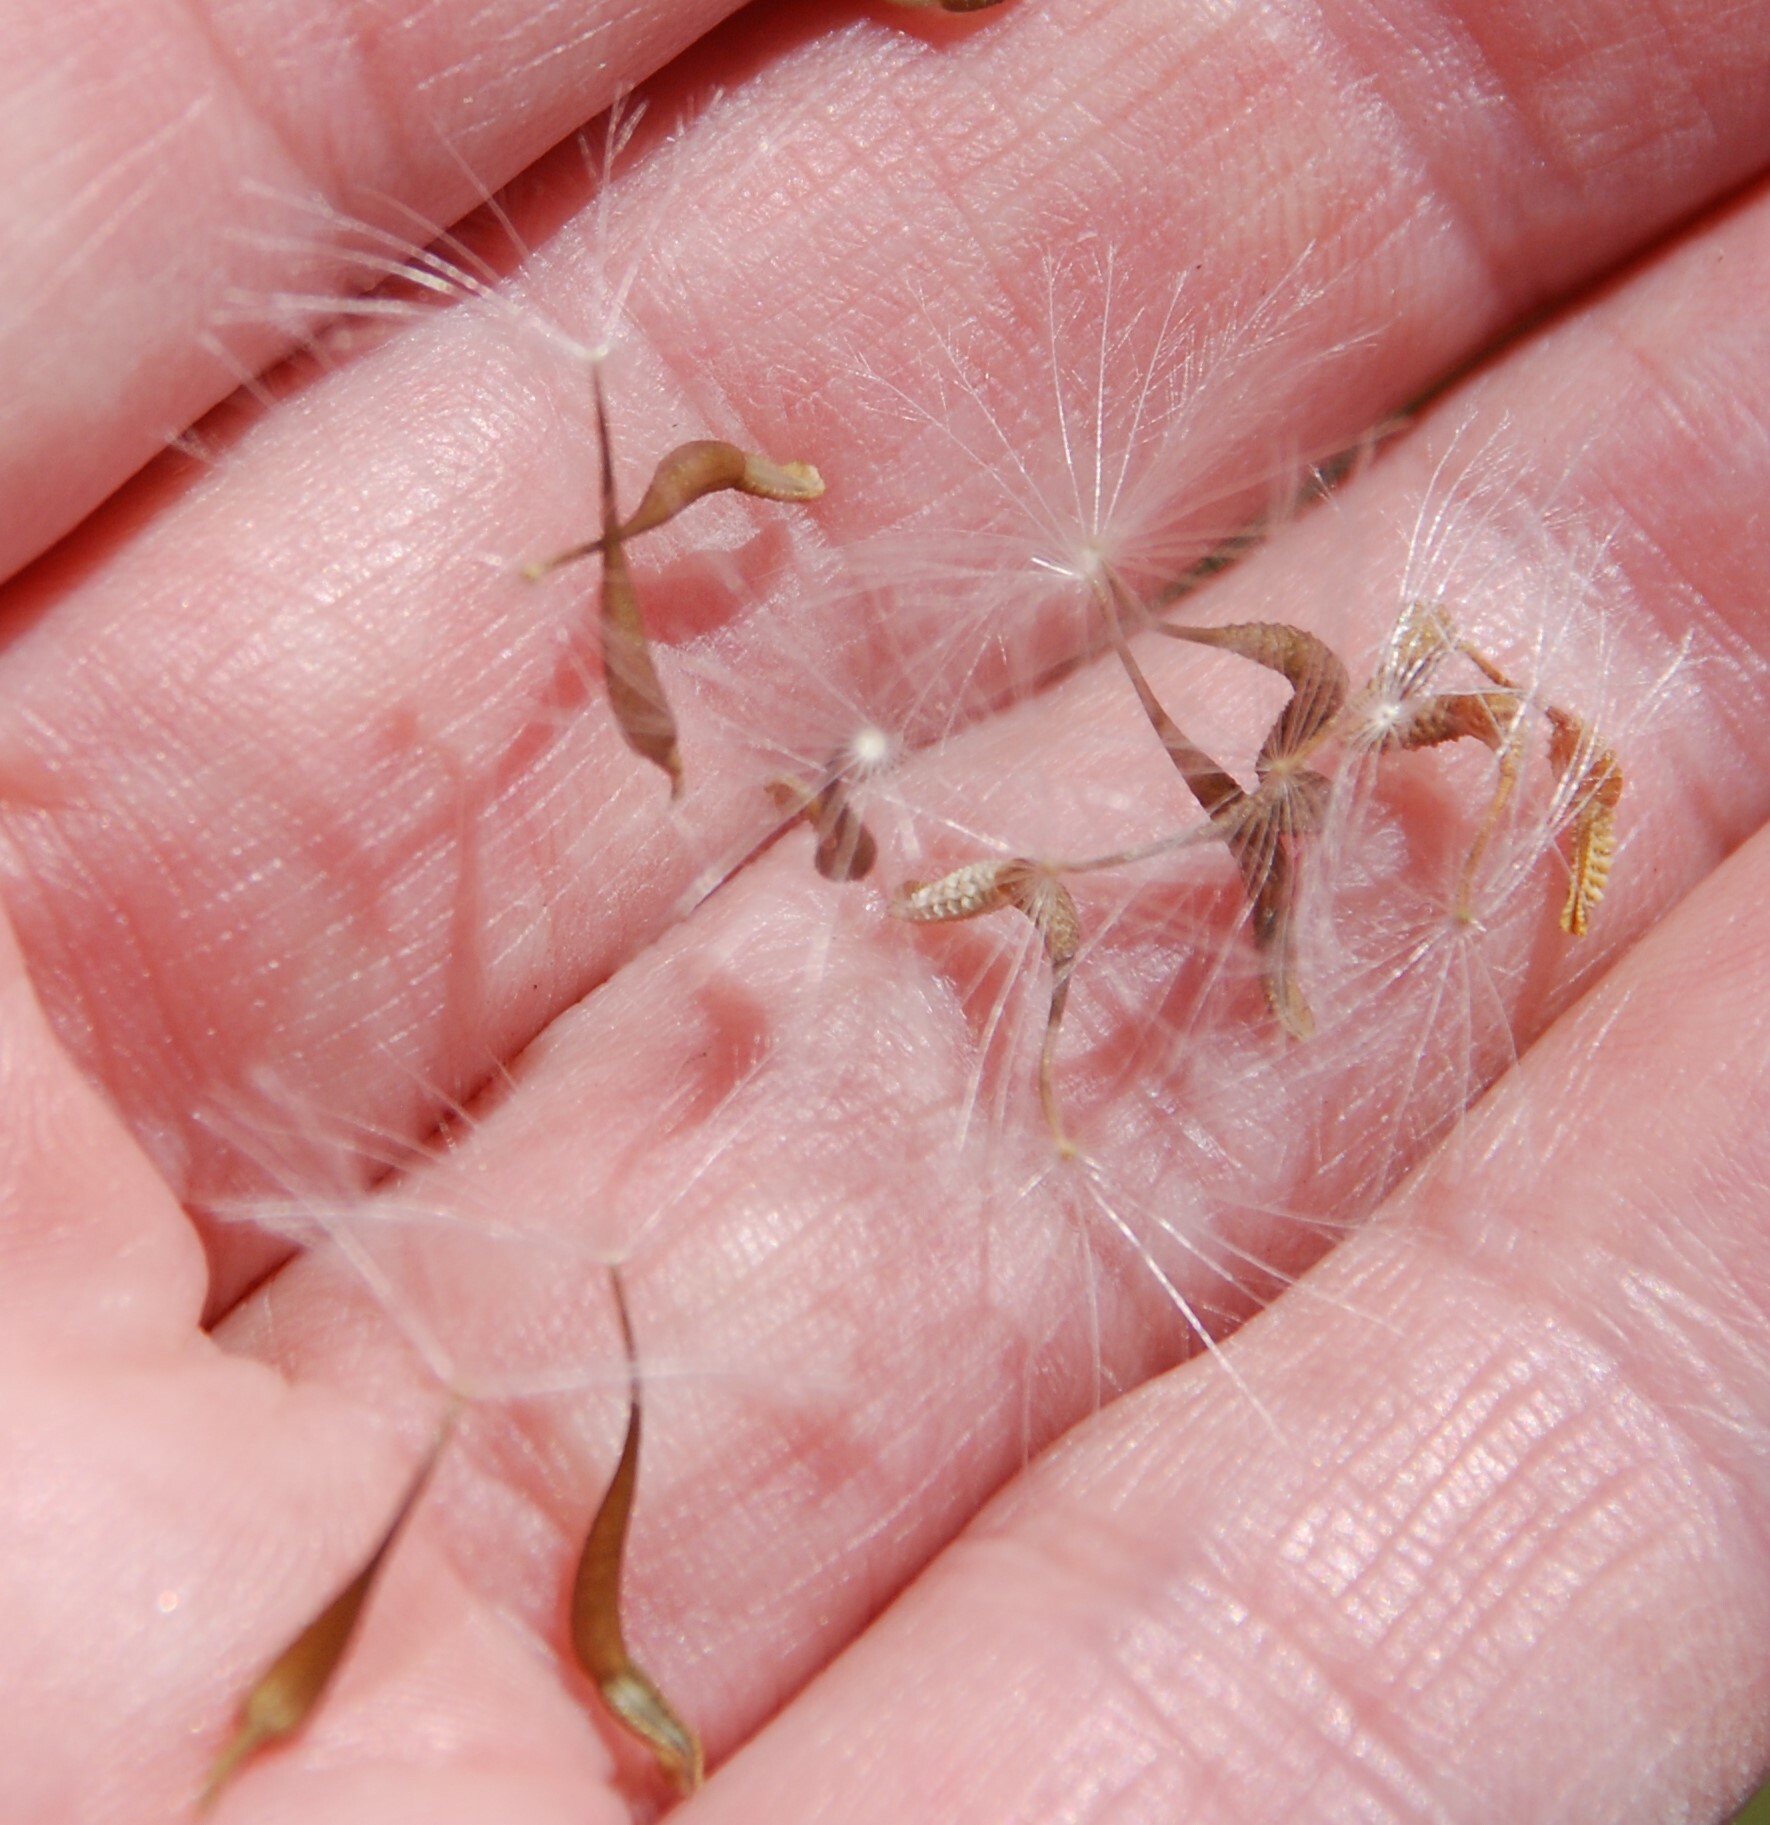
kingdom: Plantae
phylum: Tracheophyta
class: Magnoliopsida
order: Asterales
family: Asteraceae
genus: Urospermum
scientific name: Urospermum picroides
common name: False hawkbit
